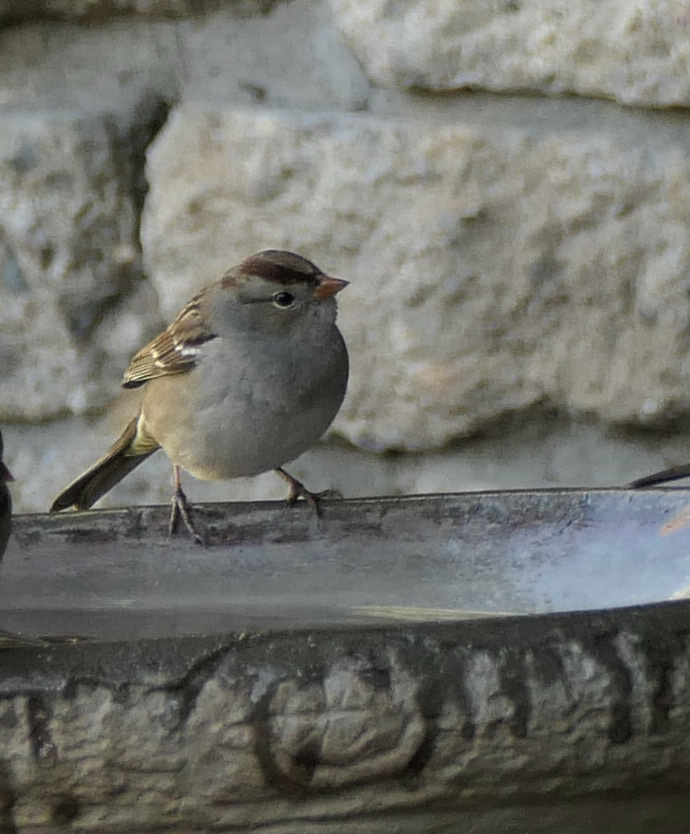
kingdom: Animalia
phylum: Chordata
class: Aves
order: Passeriformes
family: Passerellidae
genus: Zonotrichia
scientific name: Zonotrichia leucophrys
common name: White-crowned sparrow
